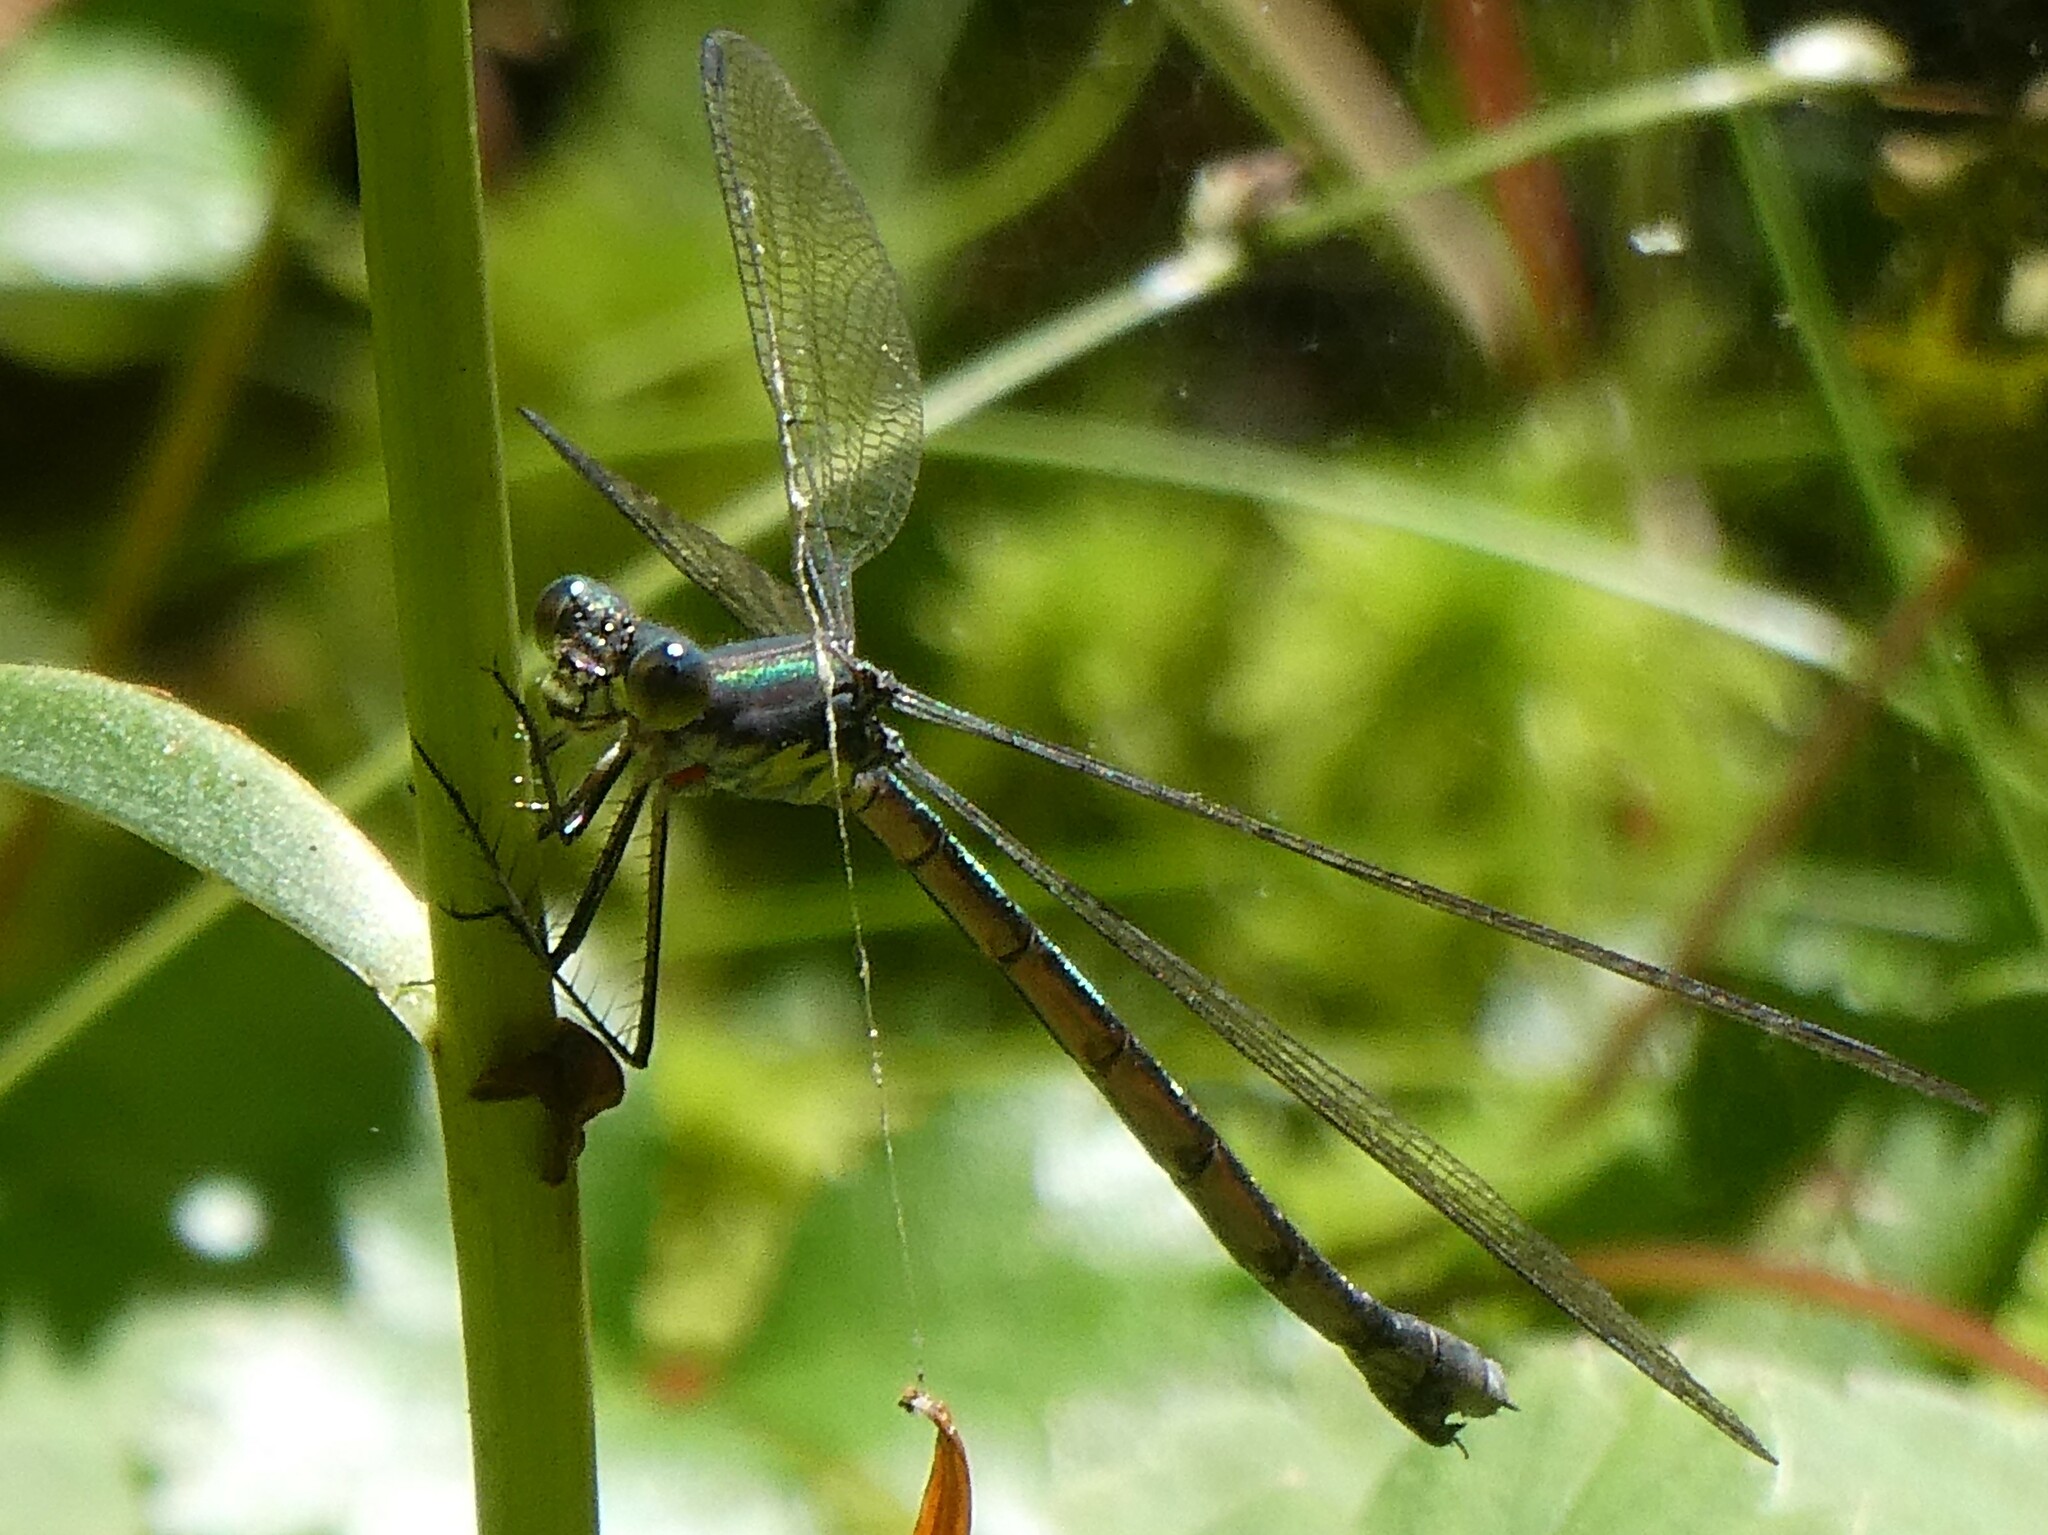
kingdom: Animalia
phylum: Arthropoda
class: Insecta
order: Odonata
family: Lestidae
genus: Lestes
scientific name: Lestes eurinus
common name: Amber-winged spreadwing
